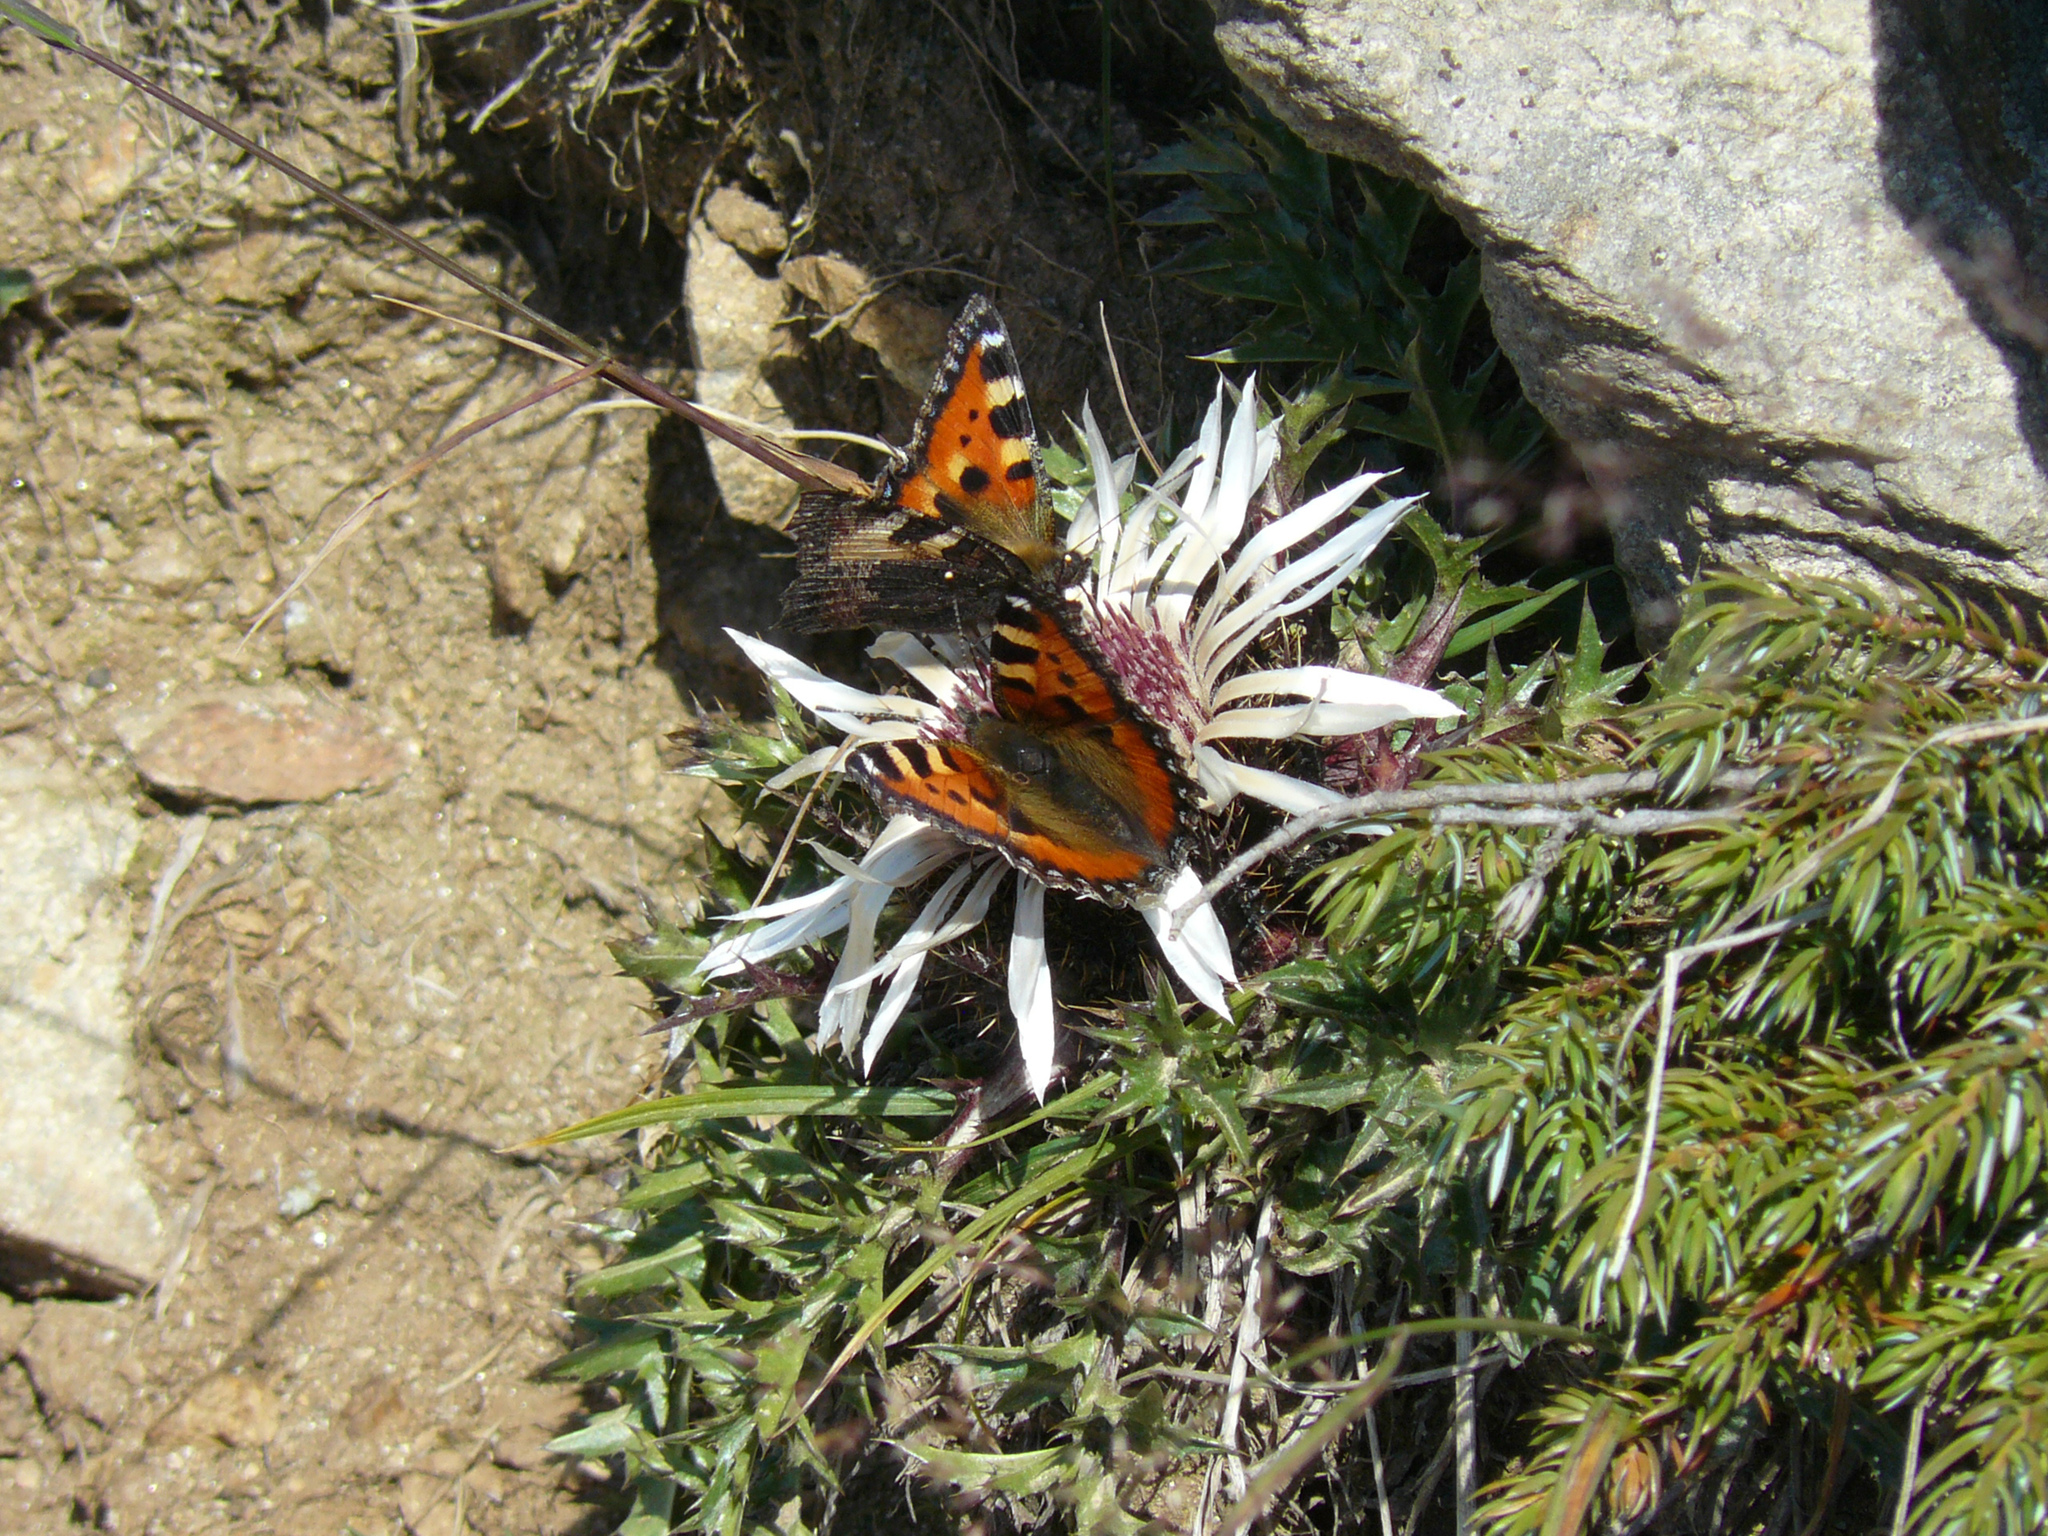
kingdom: Animalia
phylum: Arthropoda
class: Insecta
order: Lepidoptera
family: Nymphalidae
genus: Aglais
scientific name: Aglais urticae
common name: Small tortoiseshell
